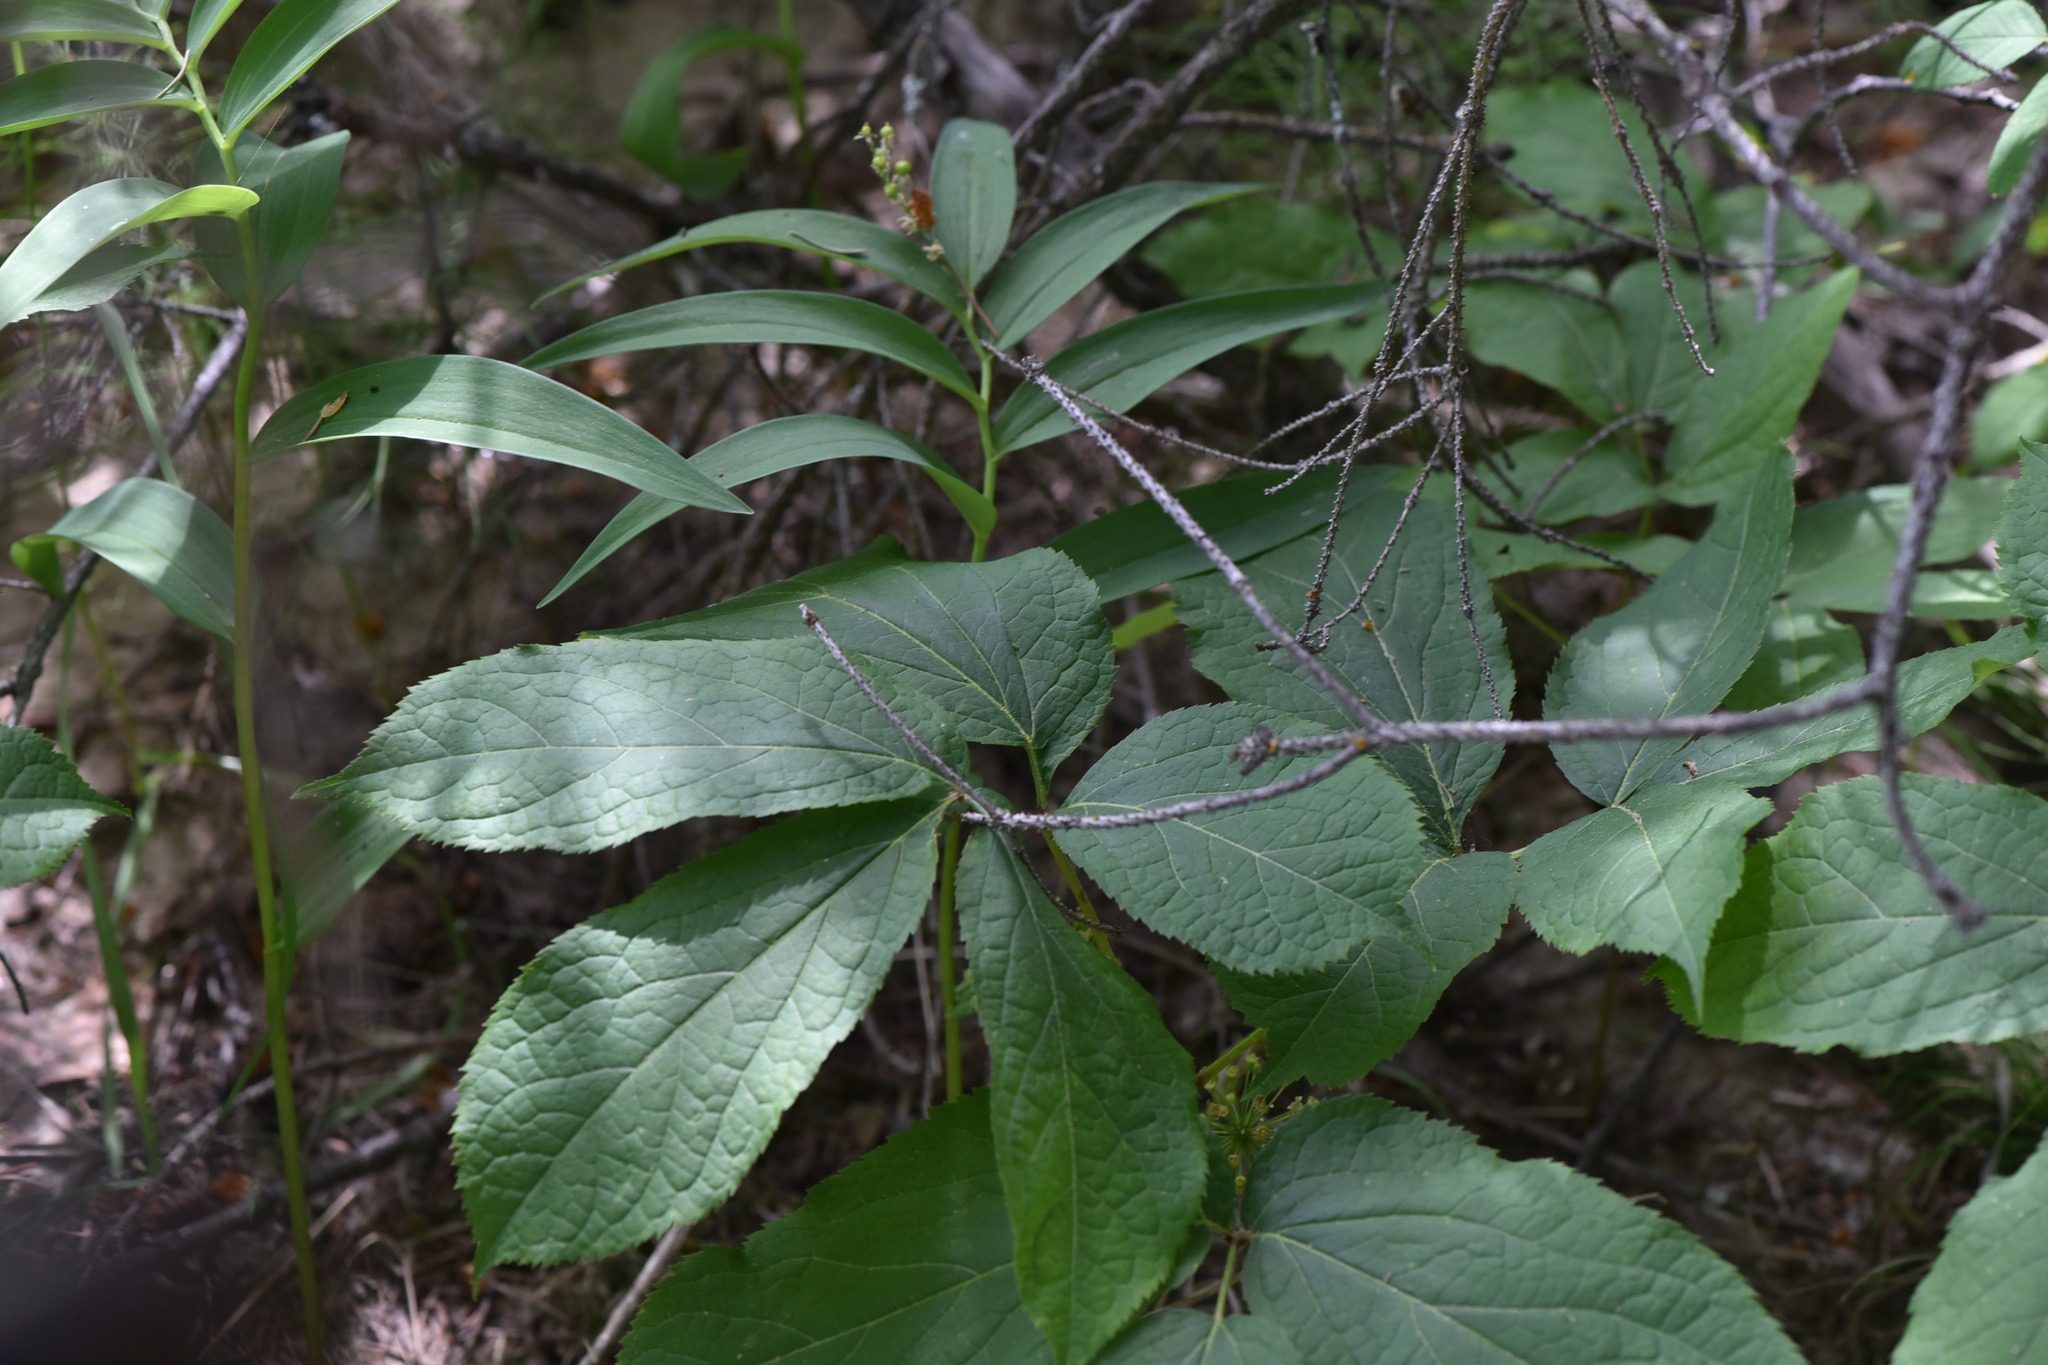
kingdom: Plantae
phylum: Tracheophyta
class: Magnoliopsida
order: Apiales
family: Araliaceae
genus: Aralia
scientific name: Aralia nudicaulis
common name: Wild sarsaparilla
